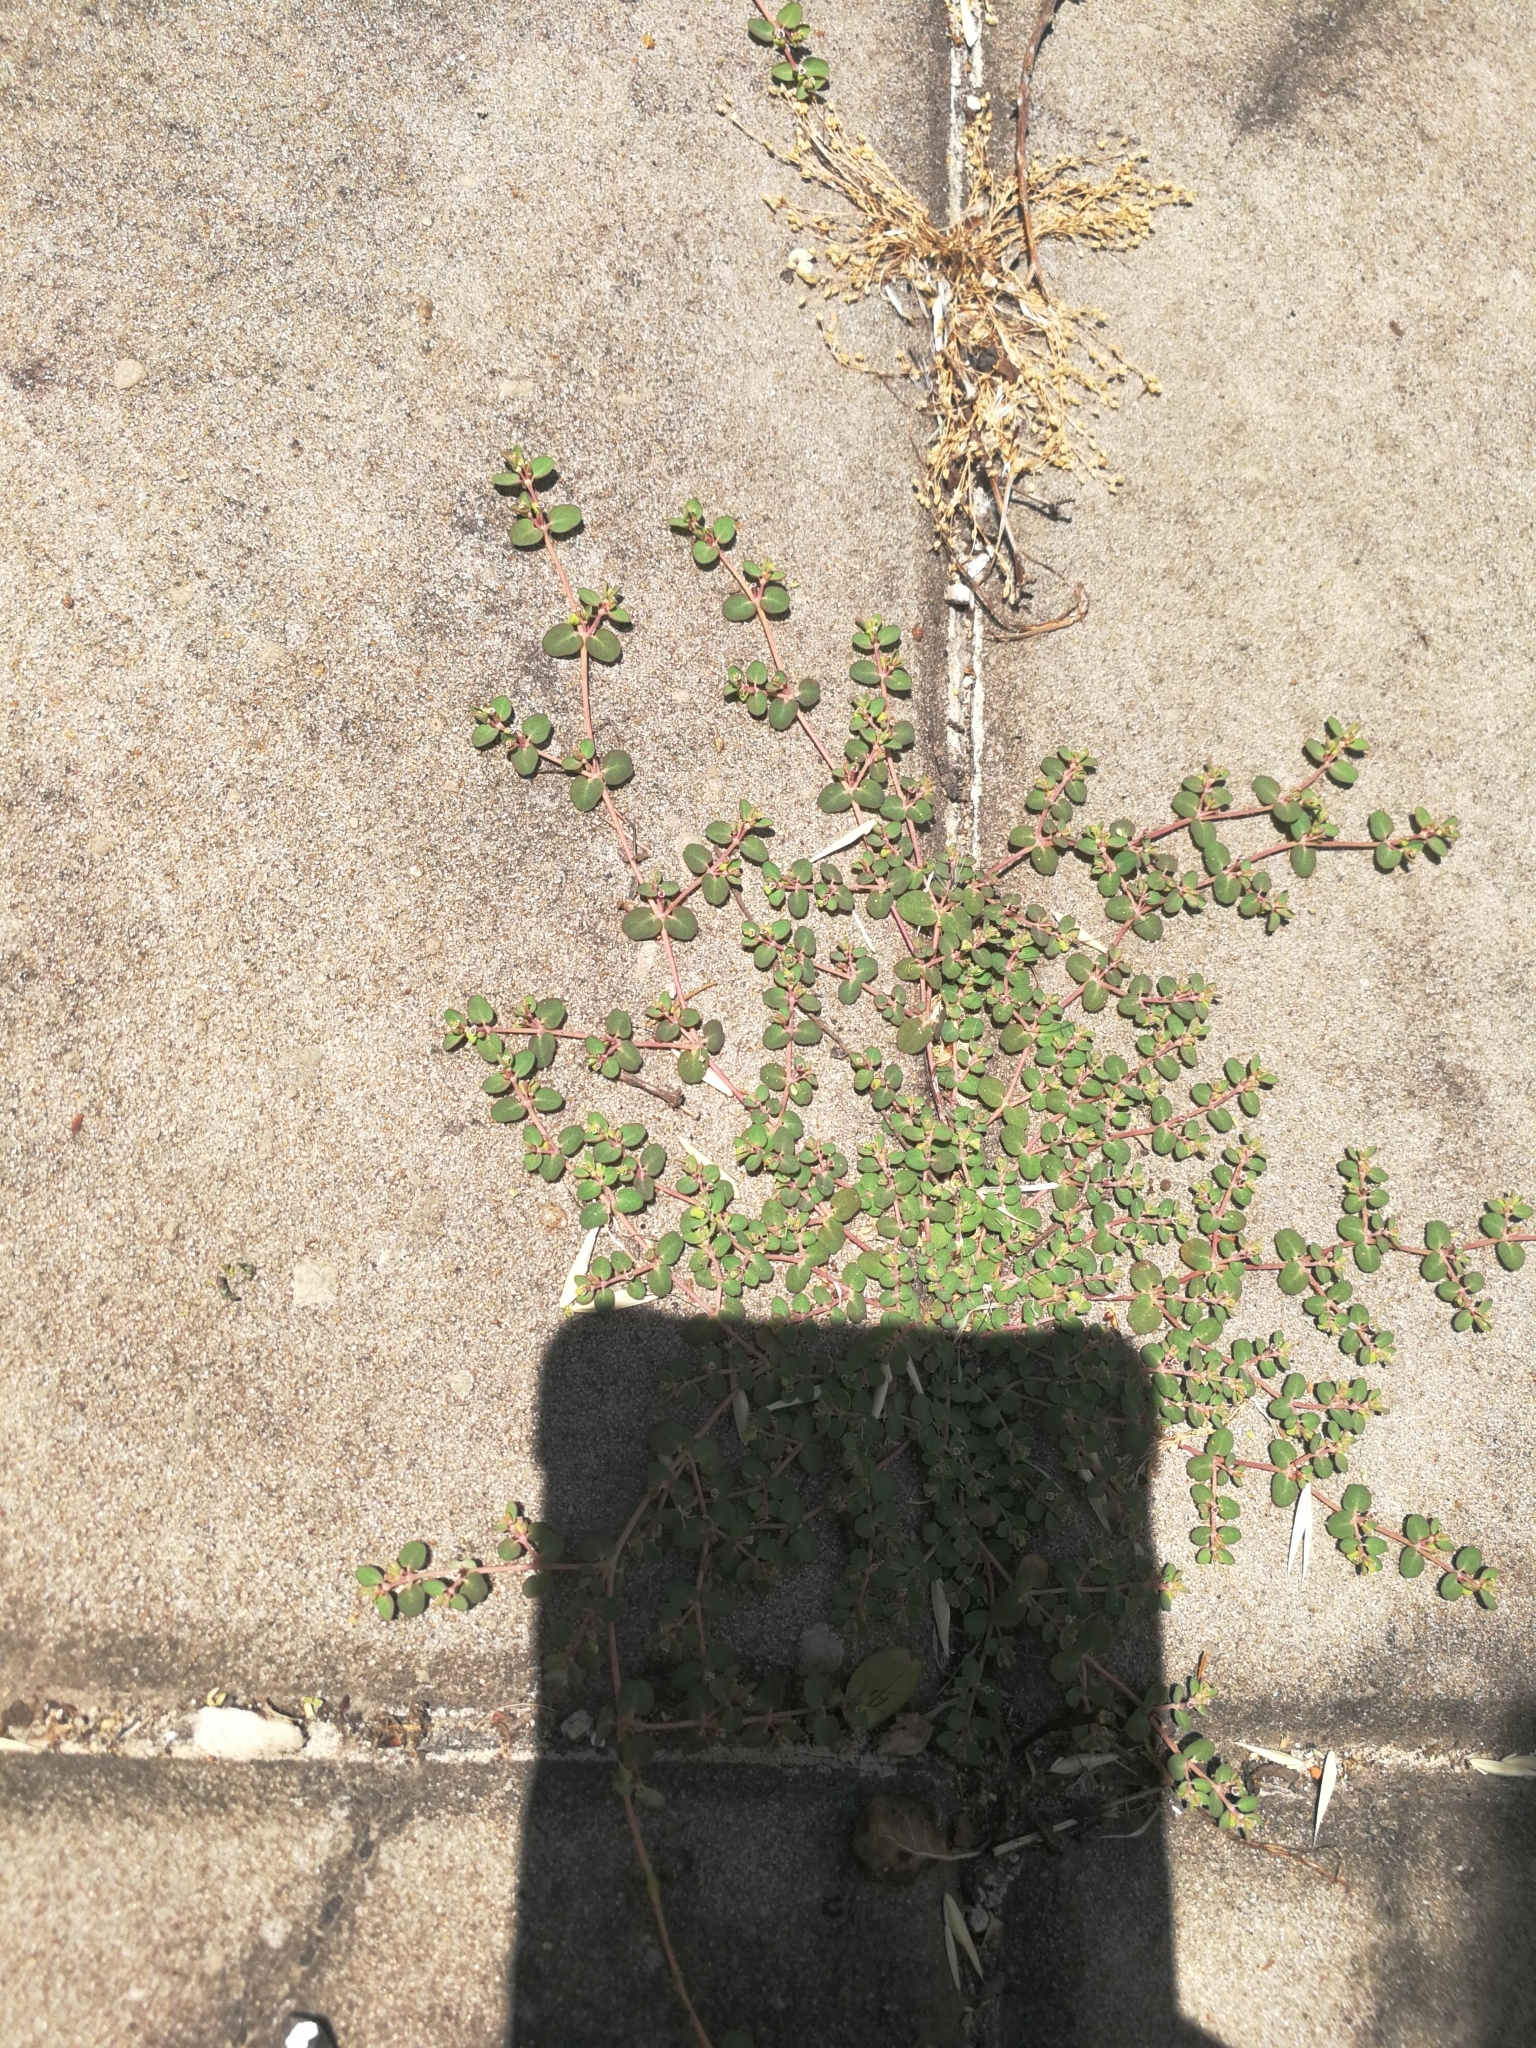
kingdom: Plantae
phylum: Tracheophyta
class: Magnoliopsida
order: Malpighiales
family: Euphorbiaceae
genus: Euphorbia
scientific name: Euphorbia serpens
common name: Matted sandmat
